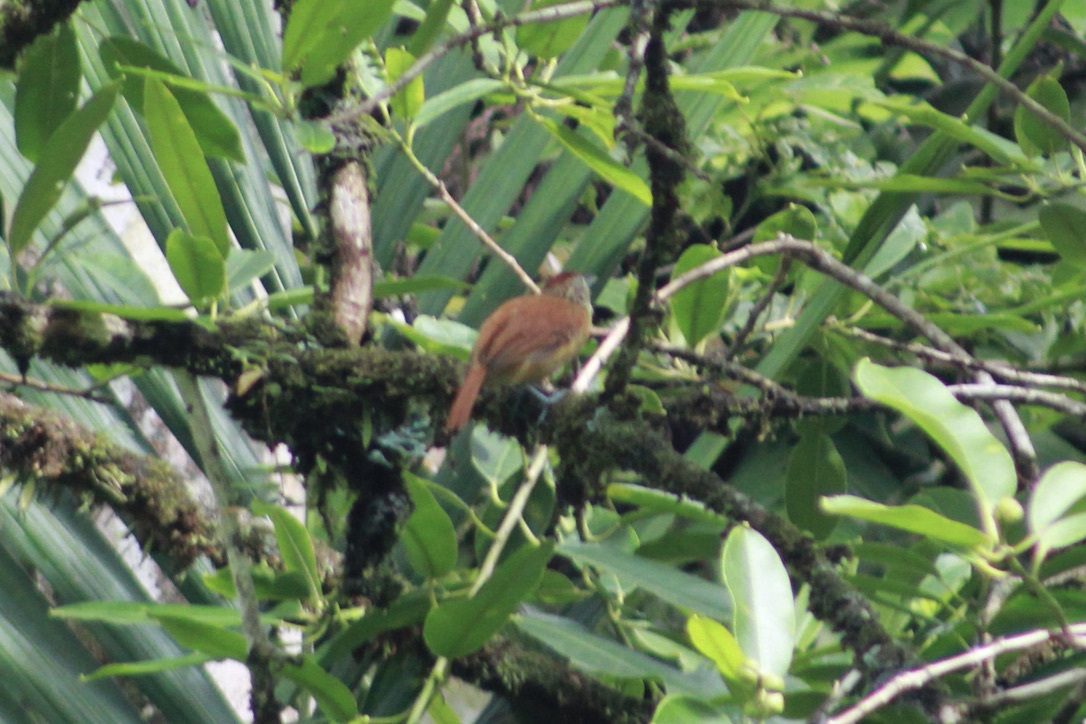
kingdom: Animalia
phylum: Chordata
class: Aves
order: Passeriformes
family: Thamnophilidae
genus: Thamnophilus
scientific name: Thamnophilus doliatus
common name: Barred antshrike
